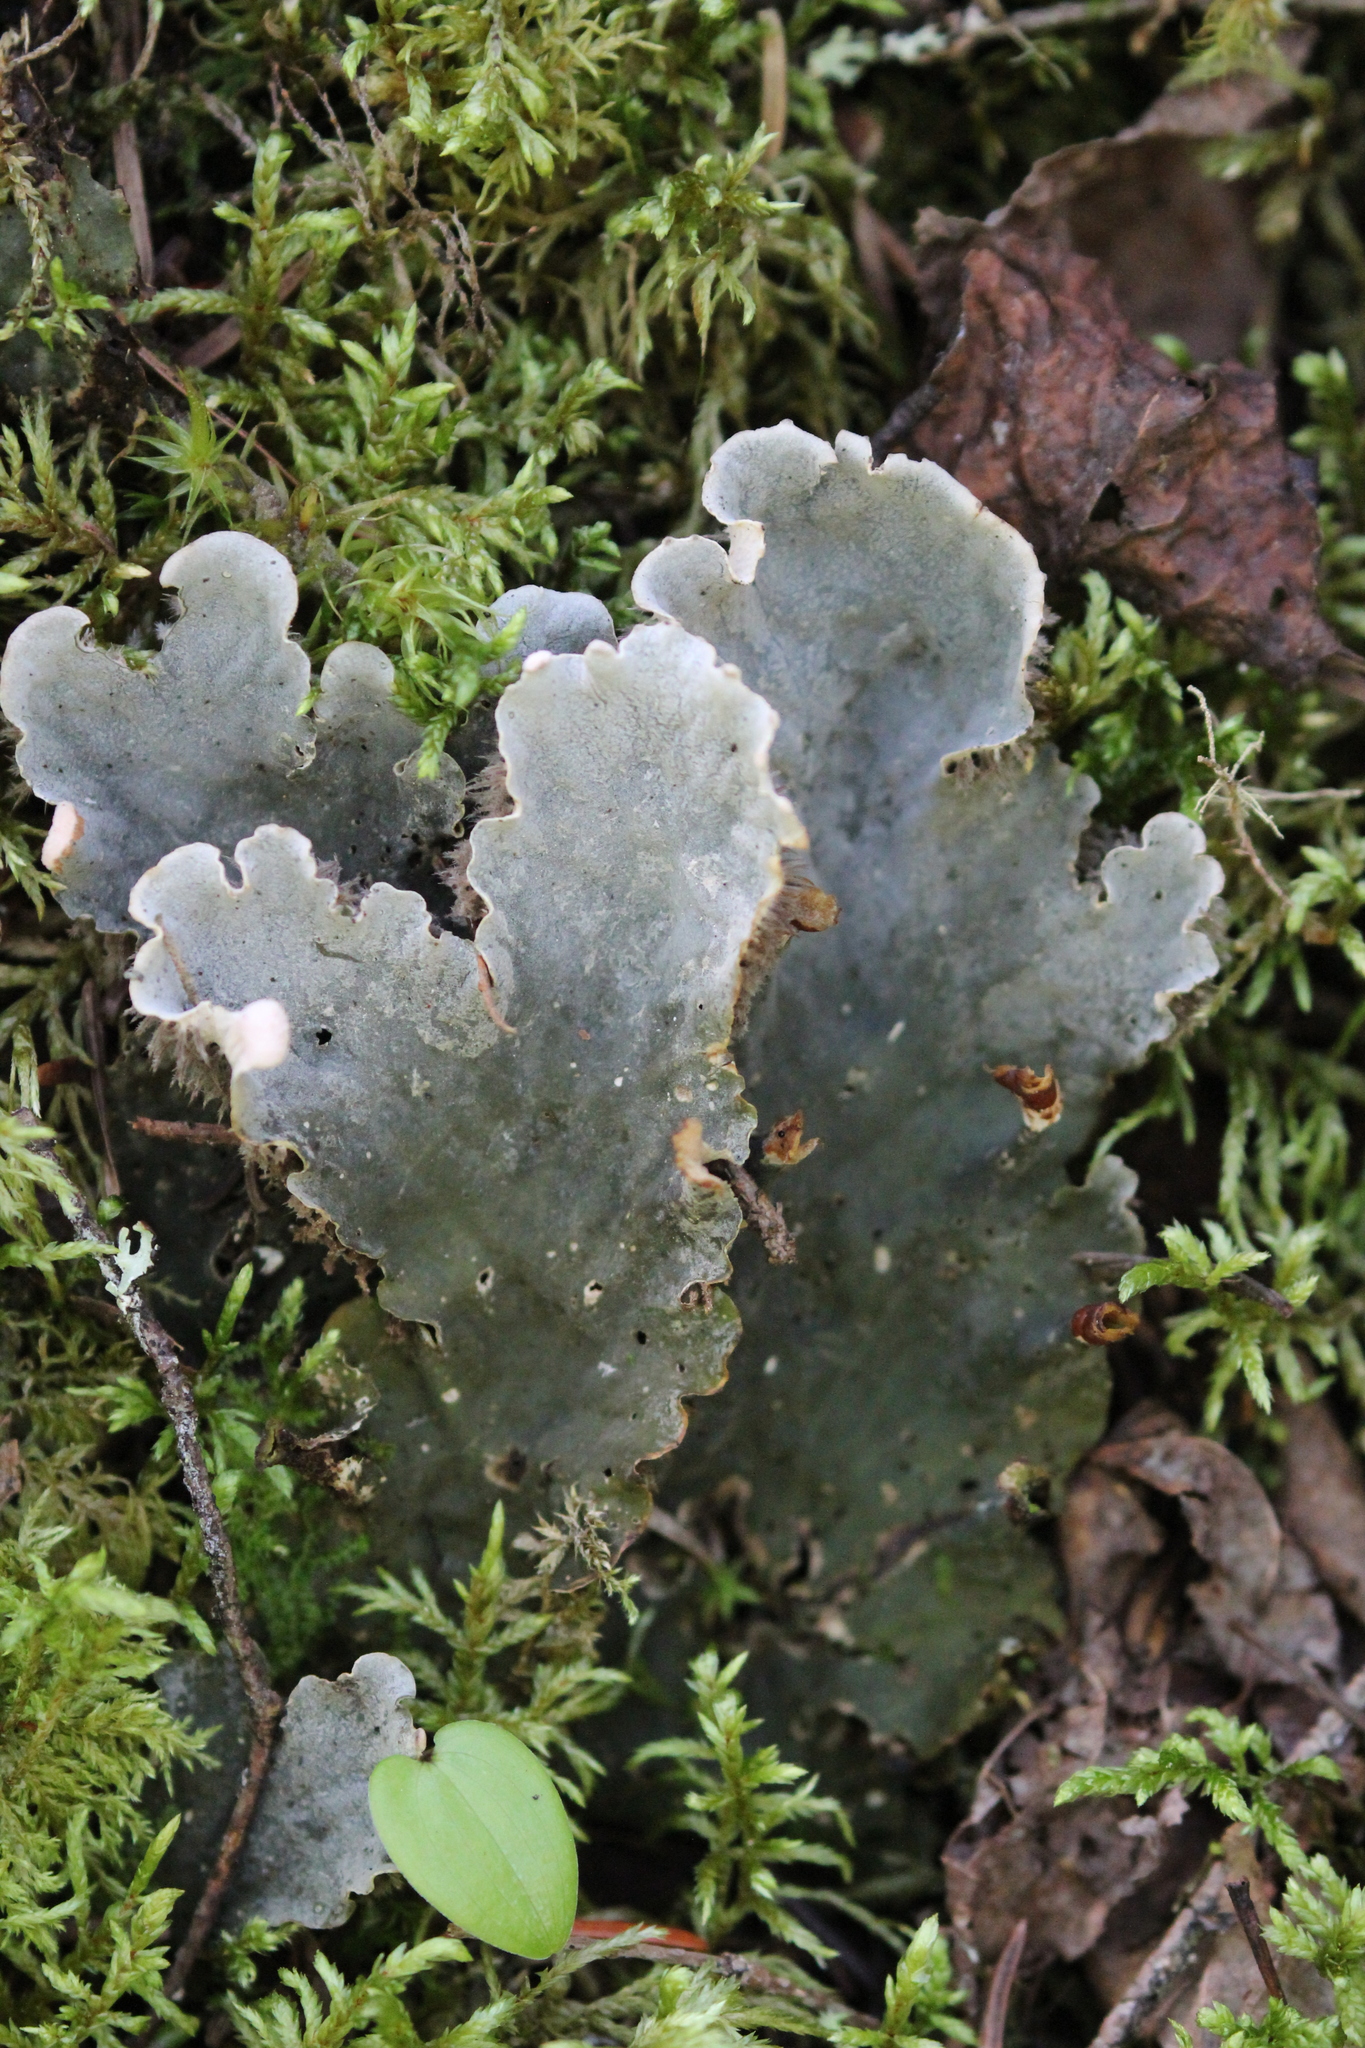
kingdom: Fungi
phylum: Ascomycota
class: Lecanoromycetes
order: Peltigerales
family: Peltigeraceae
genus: Peltigera
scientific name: Peltigera canina
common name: Dog pelt lichen
